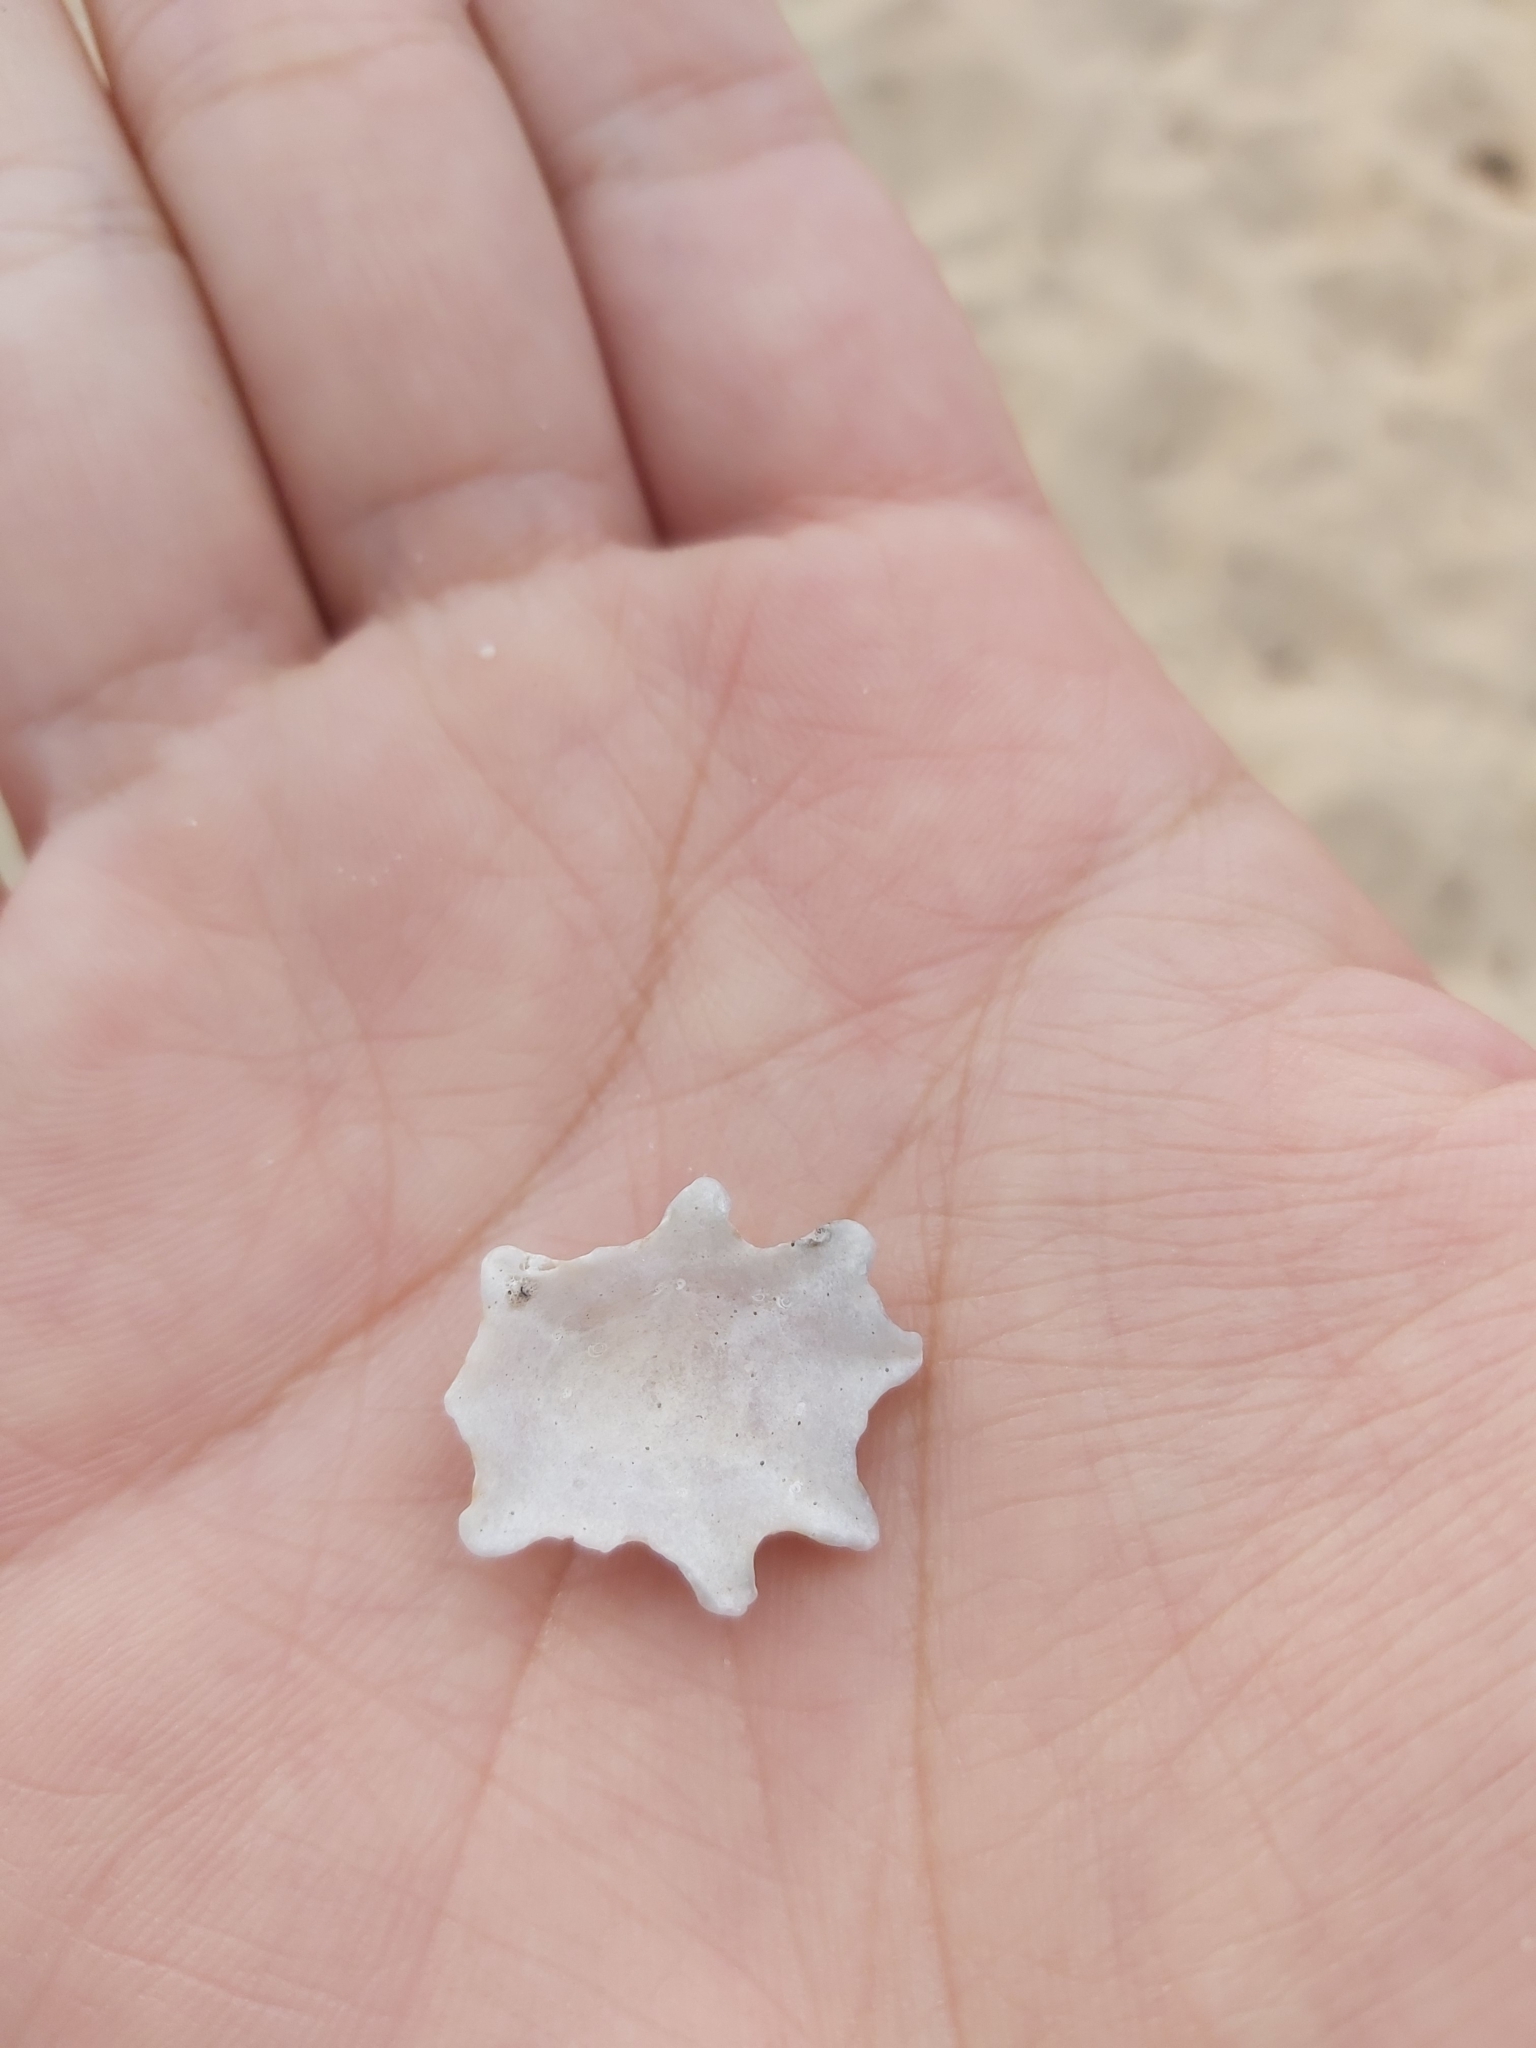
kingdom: Animalia
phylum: Mollusca
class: Gastropoda
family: Patellidae
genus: Scutellastra
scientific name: Scutellastra chapmani
